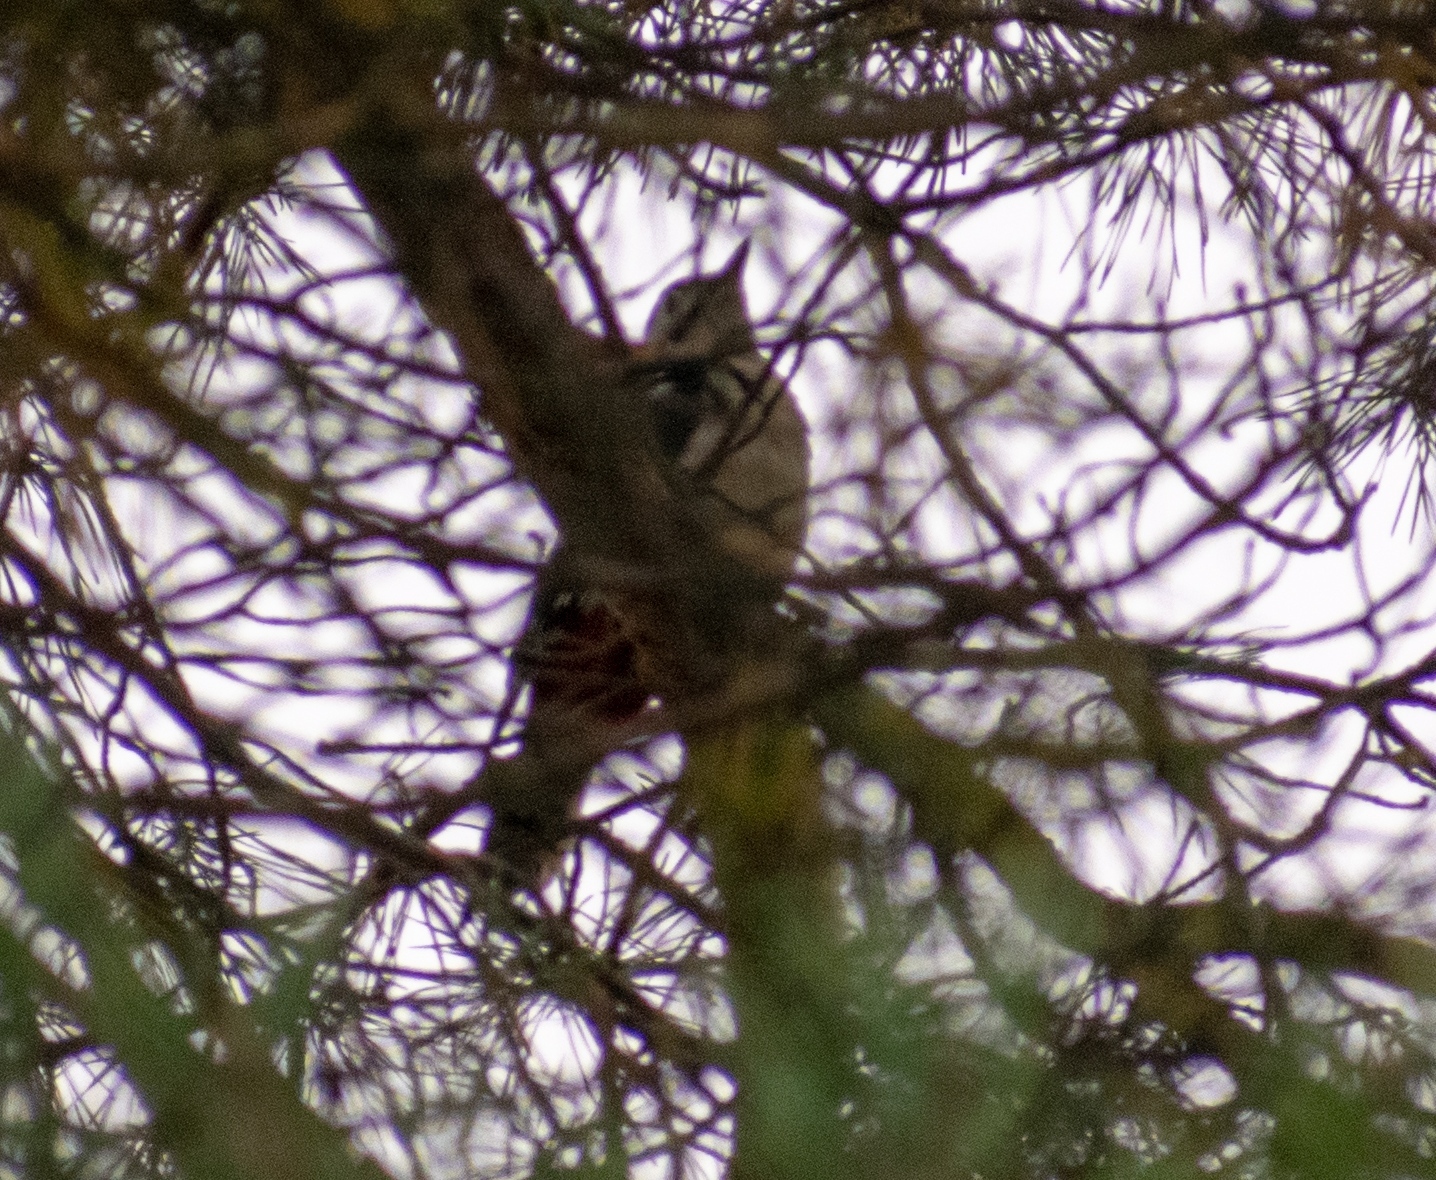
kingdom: Animalia
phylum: Chordata
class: Aves
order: Piciformes
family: Picidae
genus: Dendrocoptes
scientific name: Dendrocoptes medius
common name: Middle spotted woodpecker
